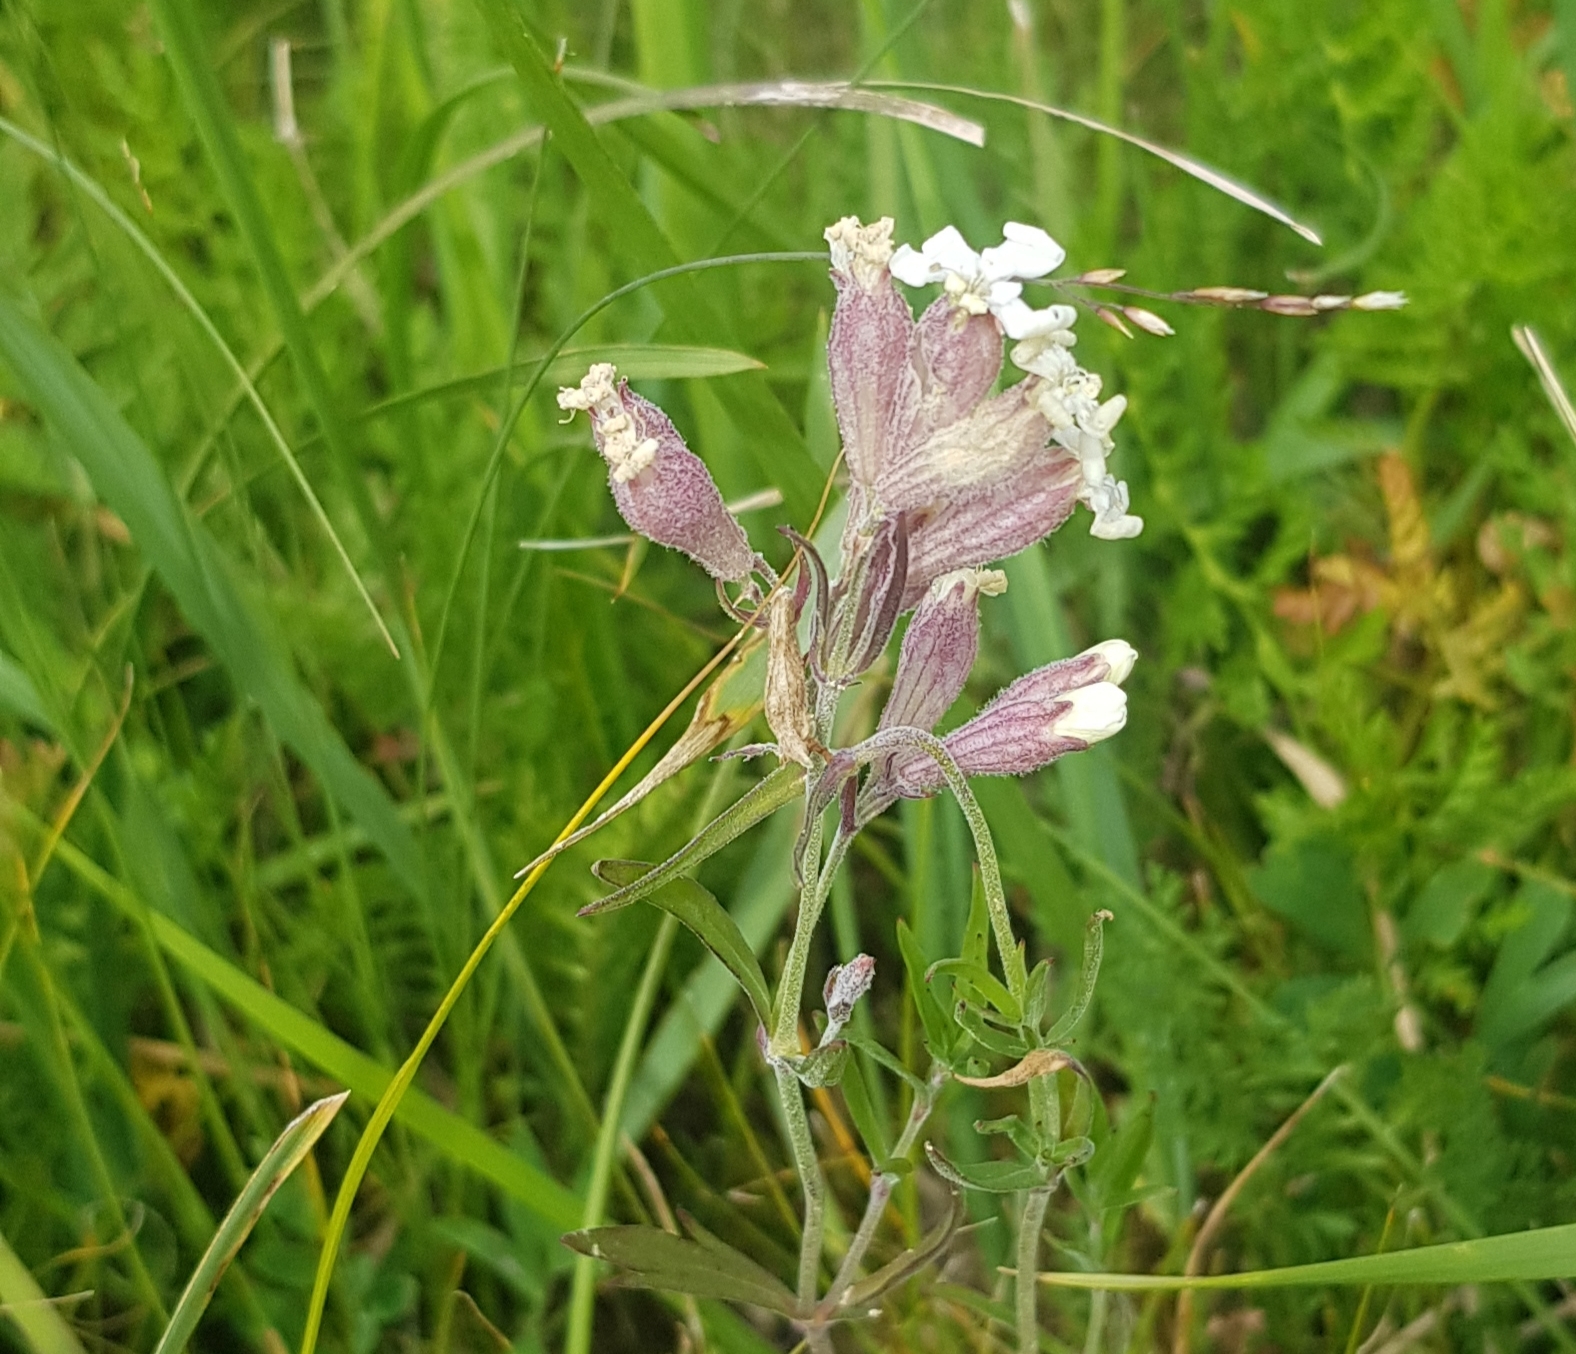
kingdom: Plantae
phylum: Tracheophyta
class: Magnoliopsida
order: Caryophyllales
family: Caryophyllaceae
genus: Silene
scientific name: Silene amoena
